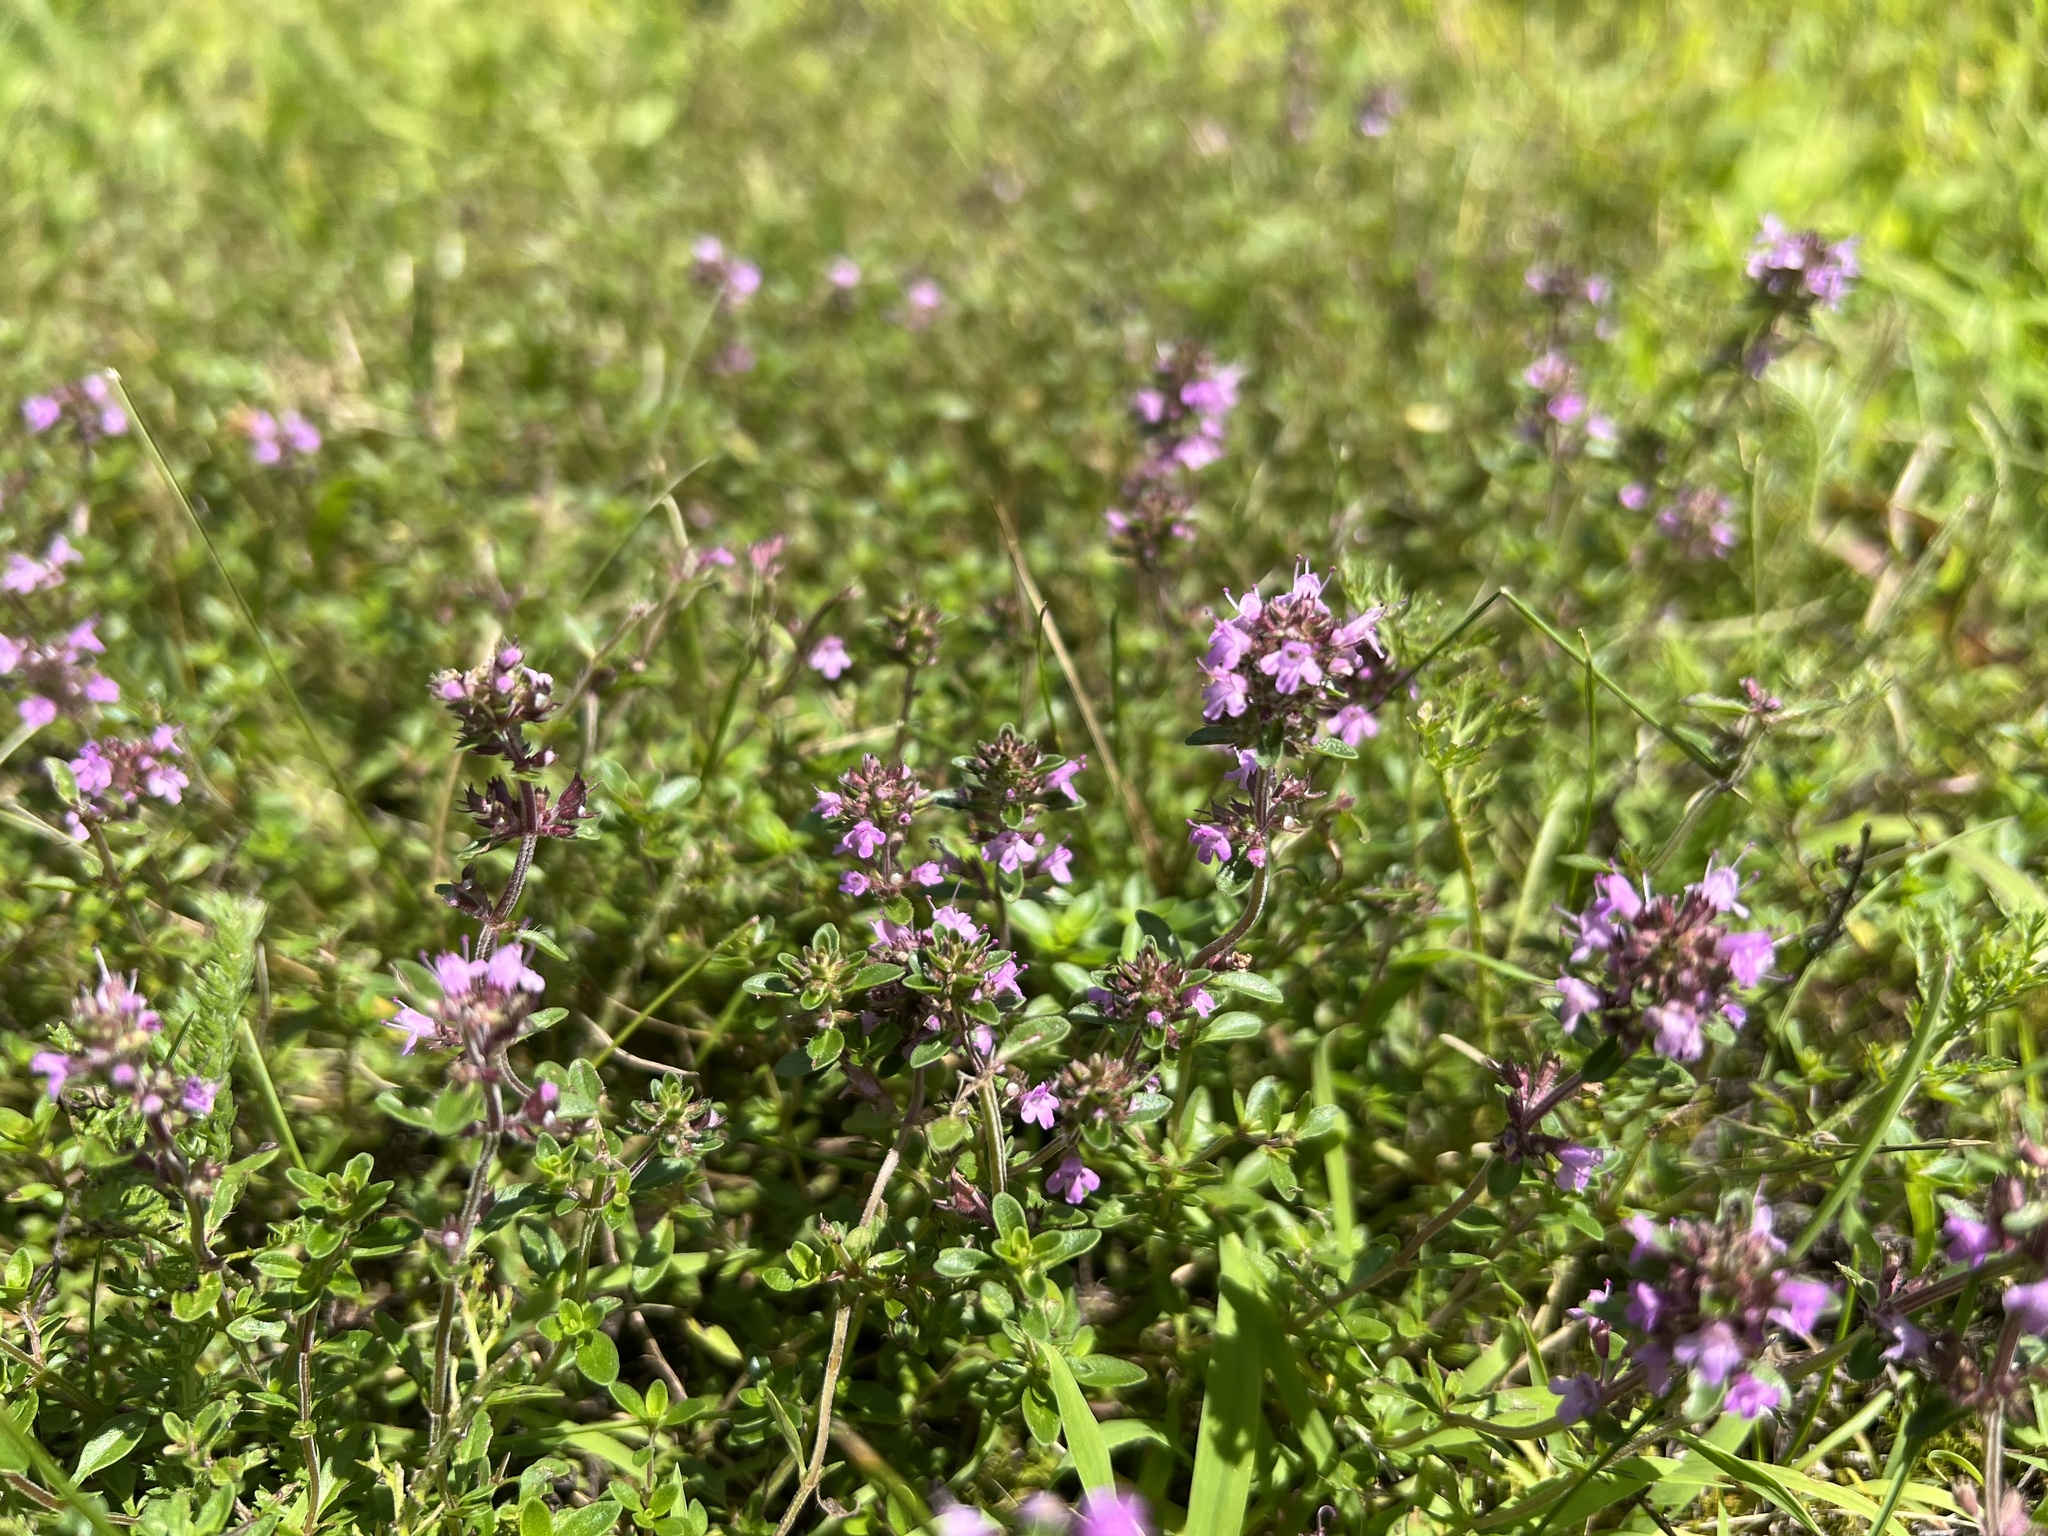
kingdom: Plantae
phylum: Tracheophyta
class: Magnoliopsida
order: Lamiales
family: Lamiaceae
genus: Thymus
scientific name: Thymus pulegioides
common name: Large thyme
